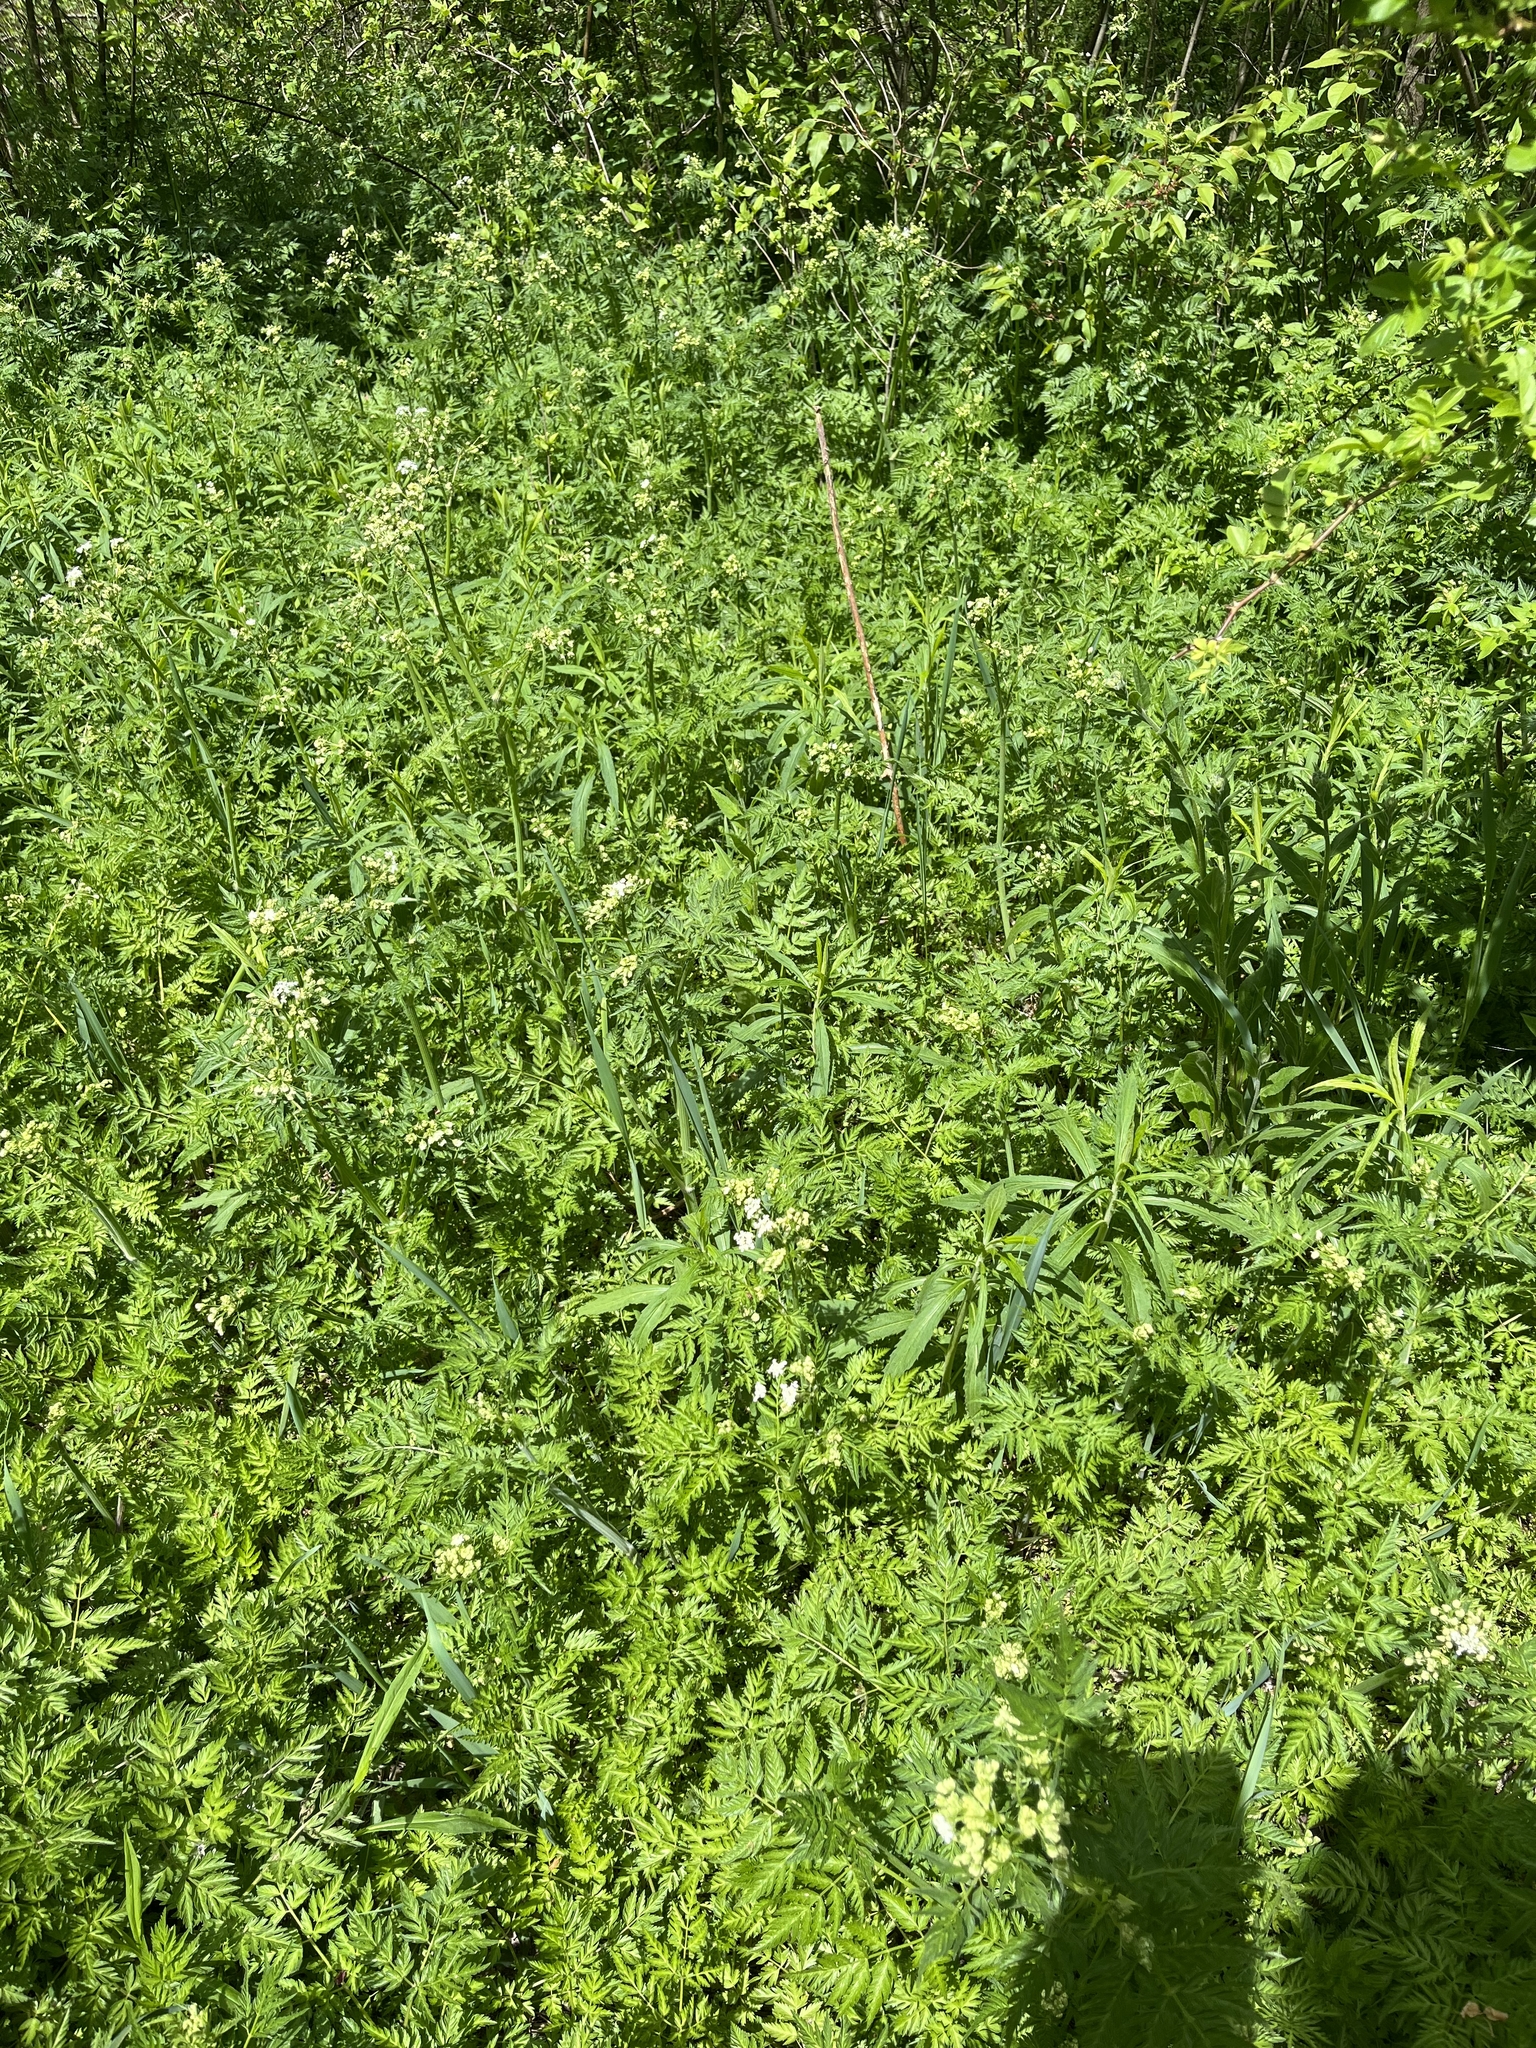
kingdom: Plantae
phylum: Tracheophyta
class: Magnoliopsida
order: Apiales
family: Apiaceae
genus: Anthriscus
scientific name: Anthriscus sylvestris
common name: Cow parsley
